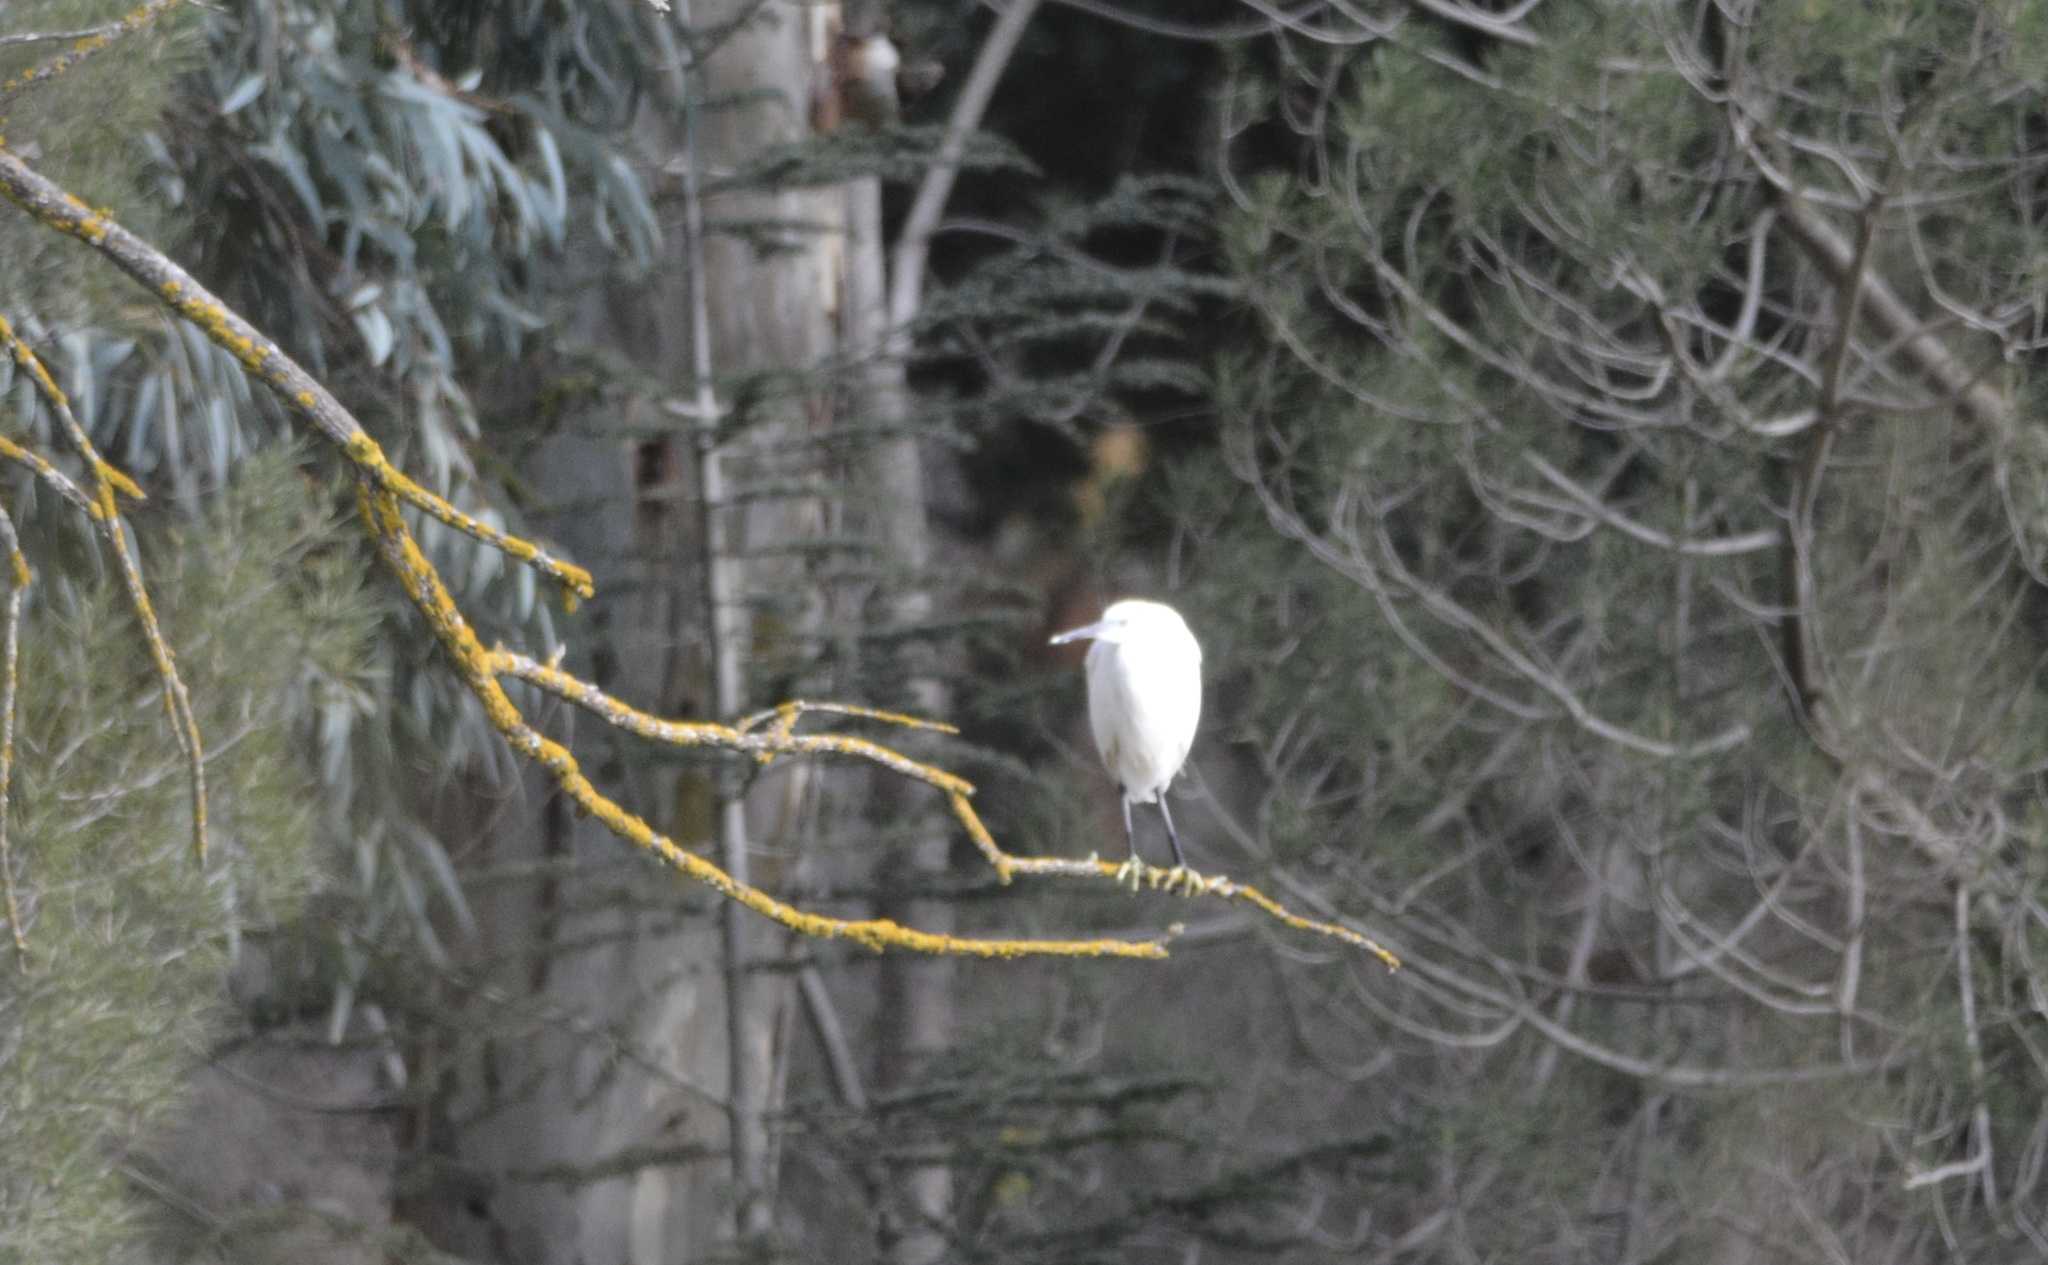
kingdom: Animalia
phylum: Chordata
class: Aves
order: Pelecaniformes
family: Ardeidae
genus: Egretta
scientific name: Egretta garzetta
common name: Little egret
